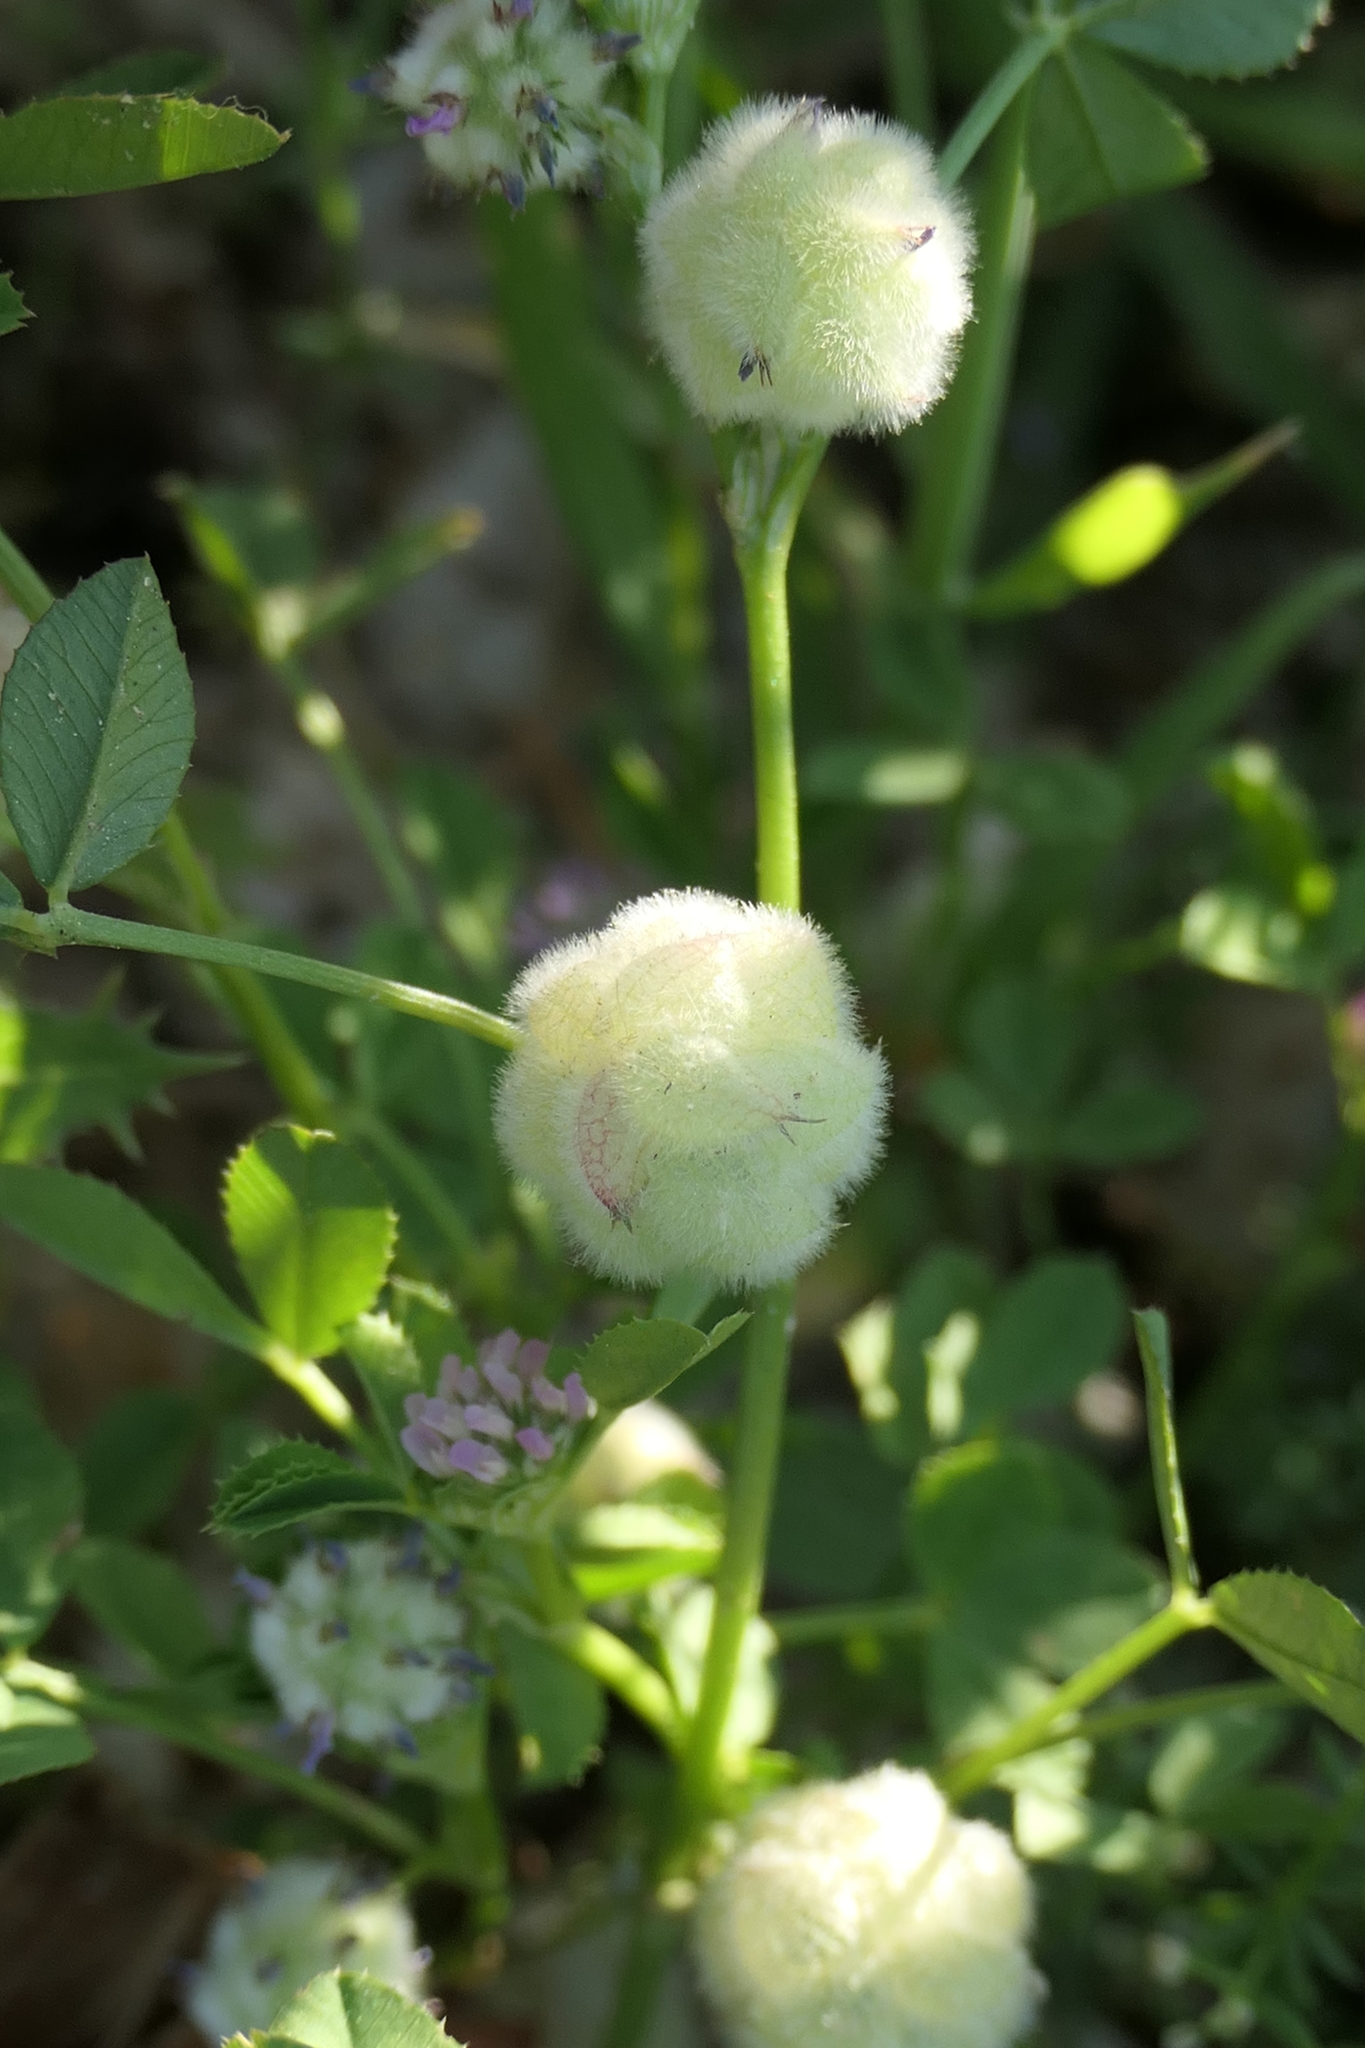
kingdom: Plantae
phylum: Tracheophyta
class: Magnoliopsida
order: Fabales
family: Fabaceae
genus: Trifolium
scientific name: Trifolium tomentosum
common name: Woolly clover
